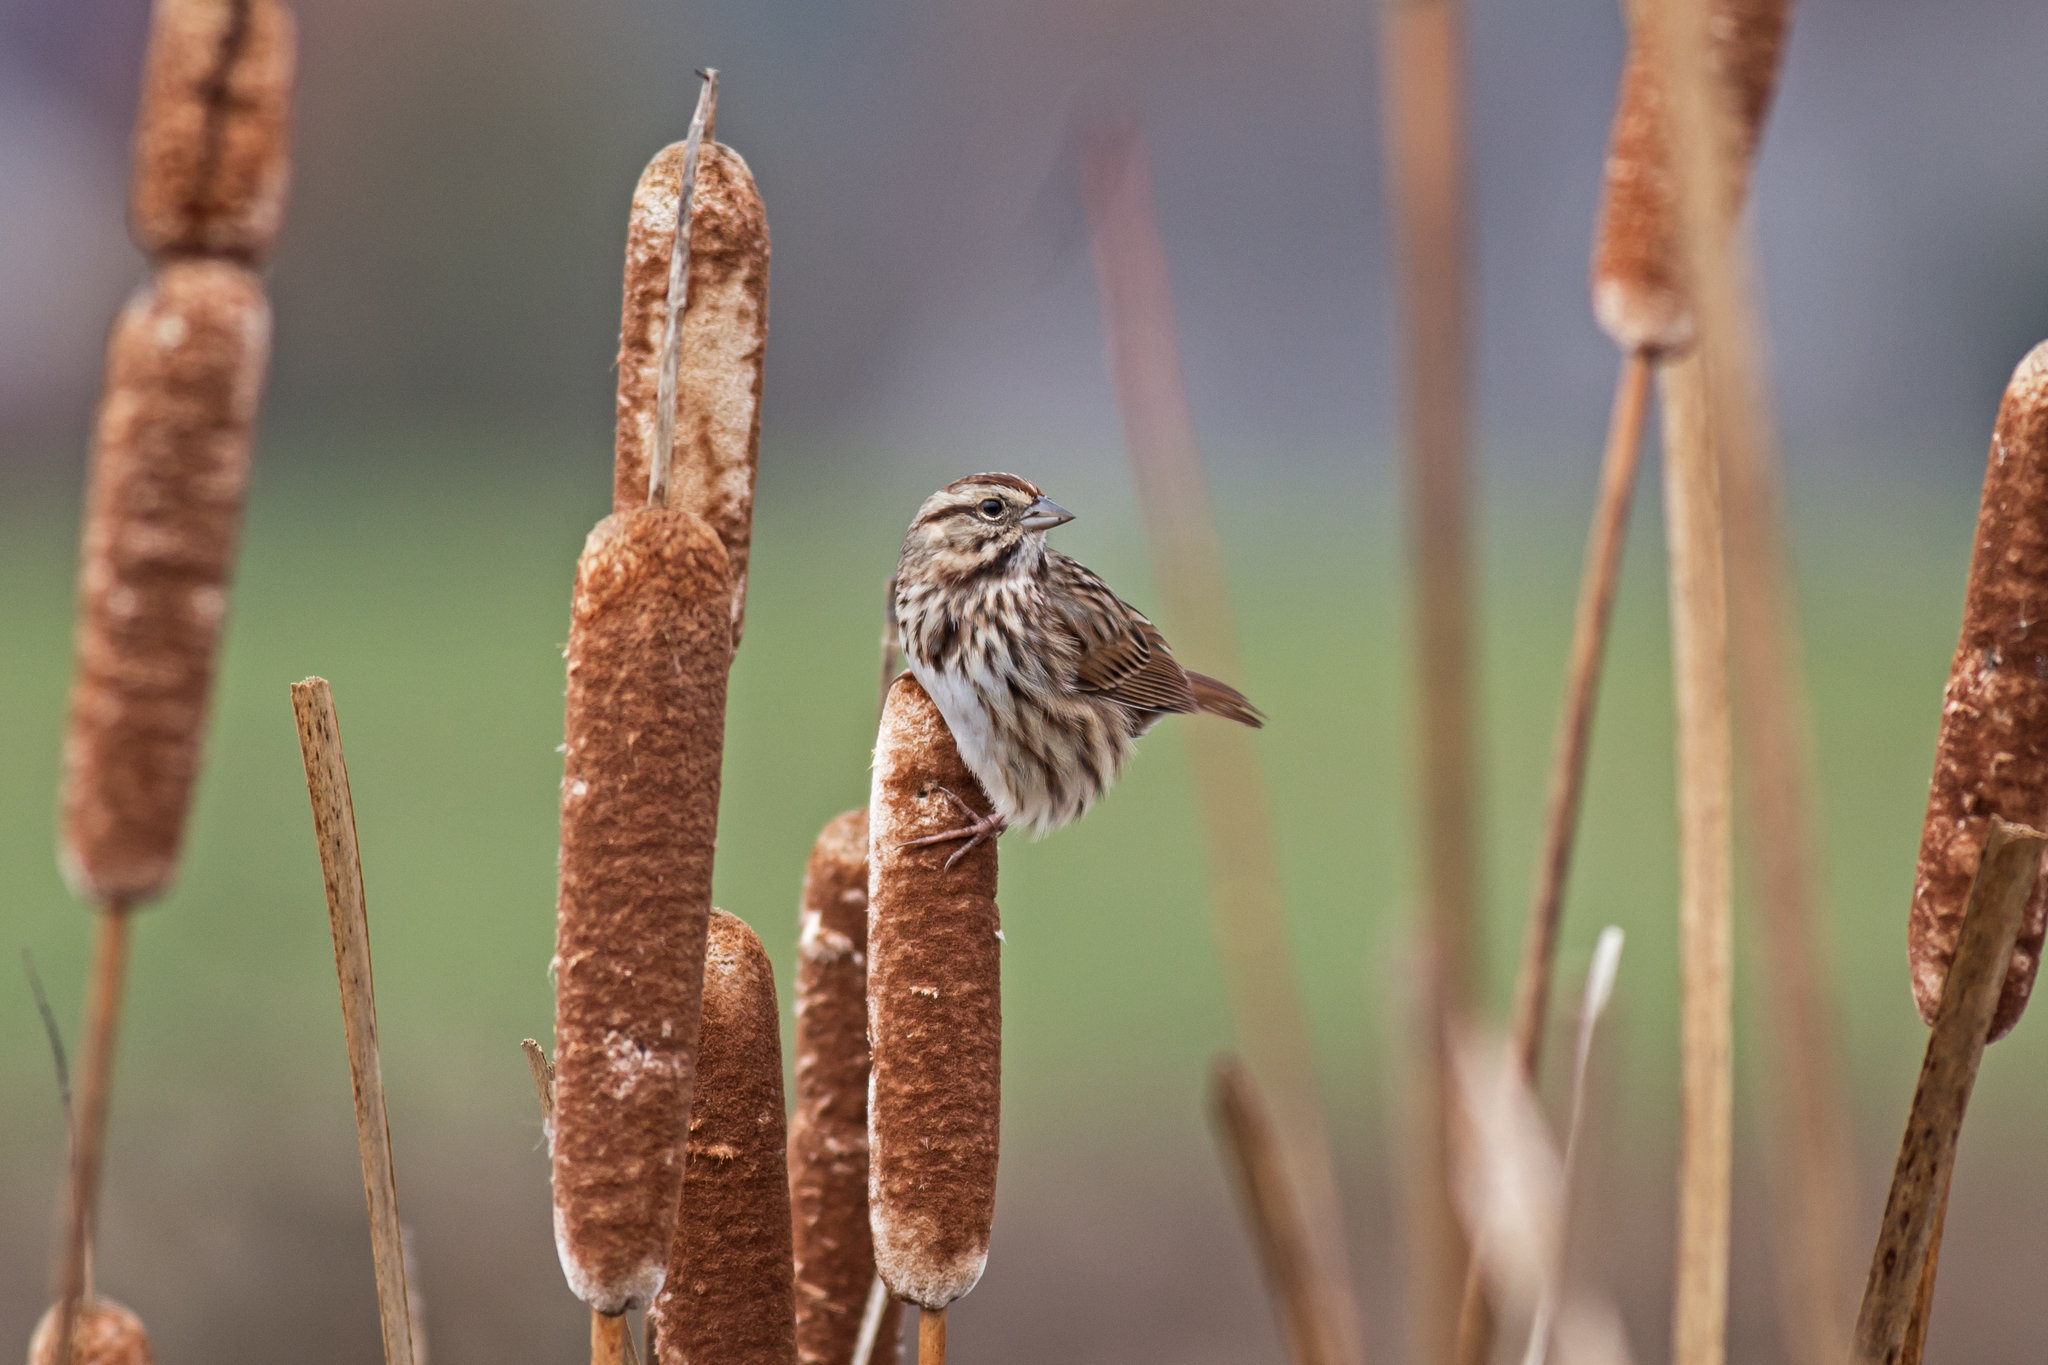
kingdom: Animalia
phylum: Chordata
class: Aves
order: Passeriformes
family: Passerellidae
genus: Melospiza
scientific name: Melospiza melodia
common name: Song sparrow
